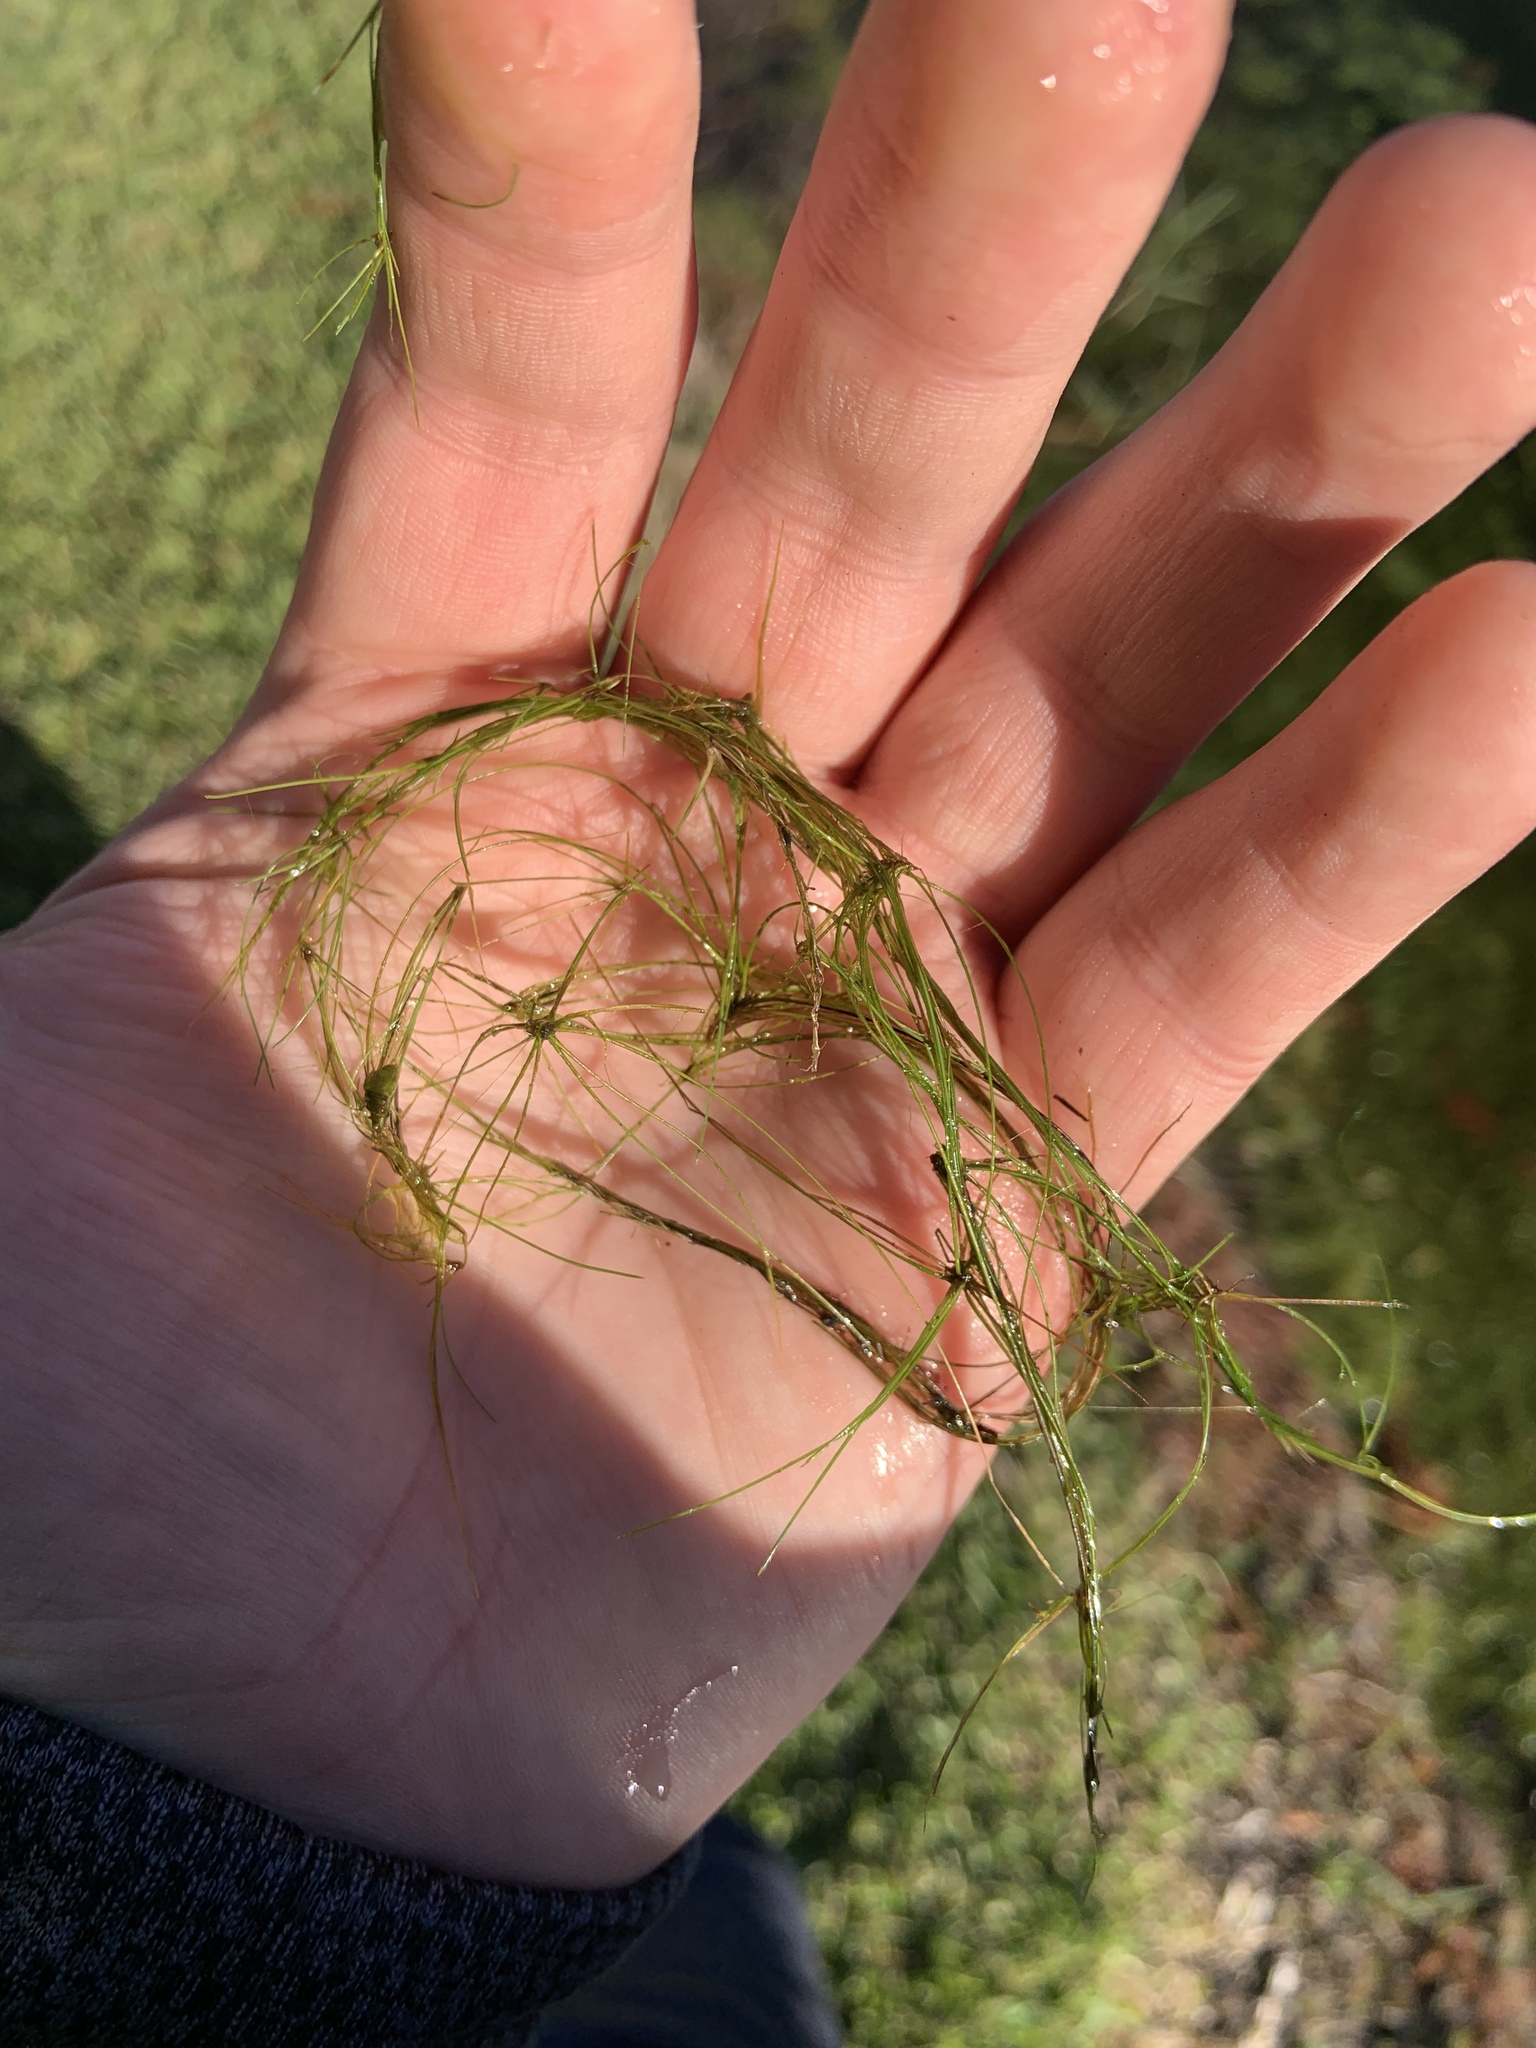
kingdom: Plantae
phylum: Tracheophyta
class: Liliopsida
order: Poales
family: Cyperaceae
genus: Eleocharis
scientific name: Eleocharis vivipara
